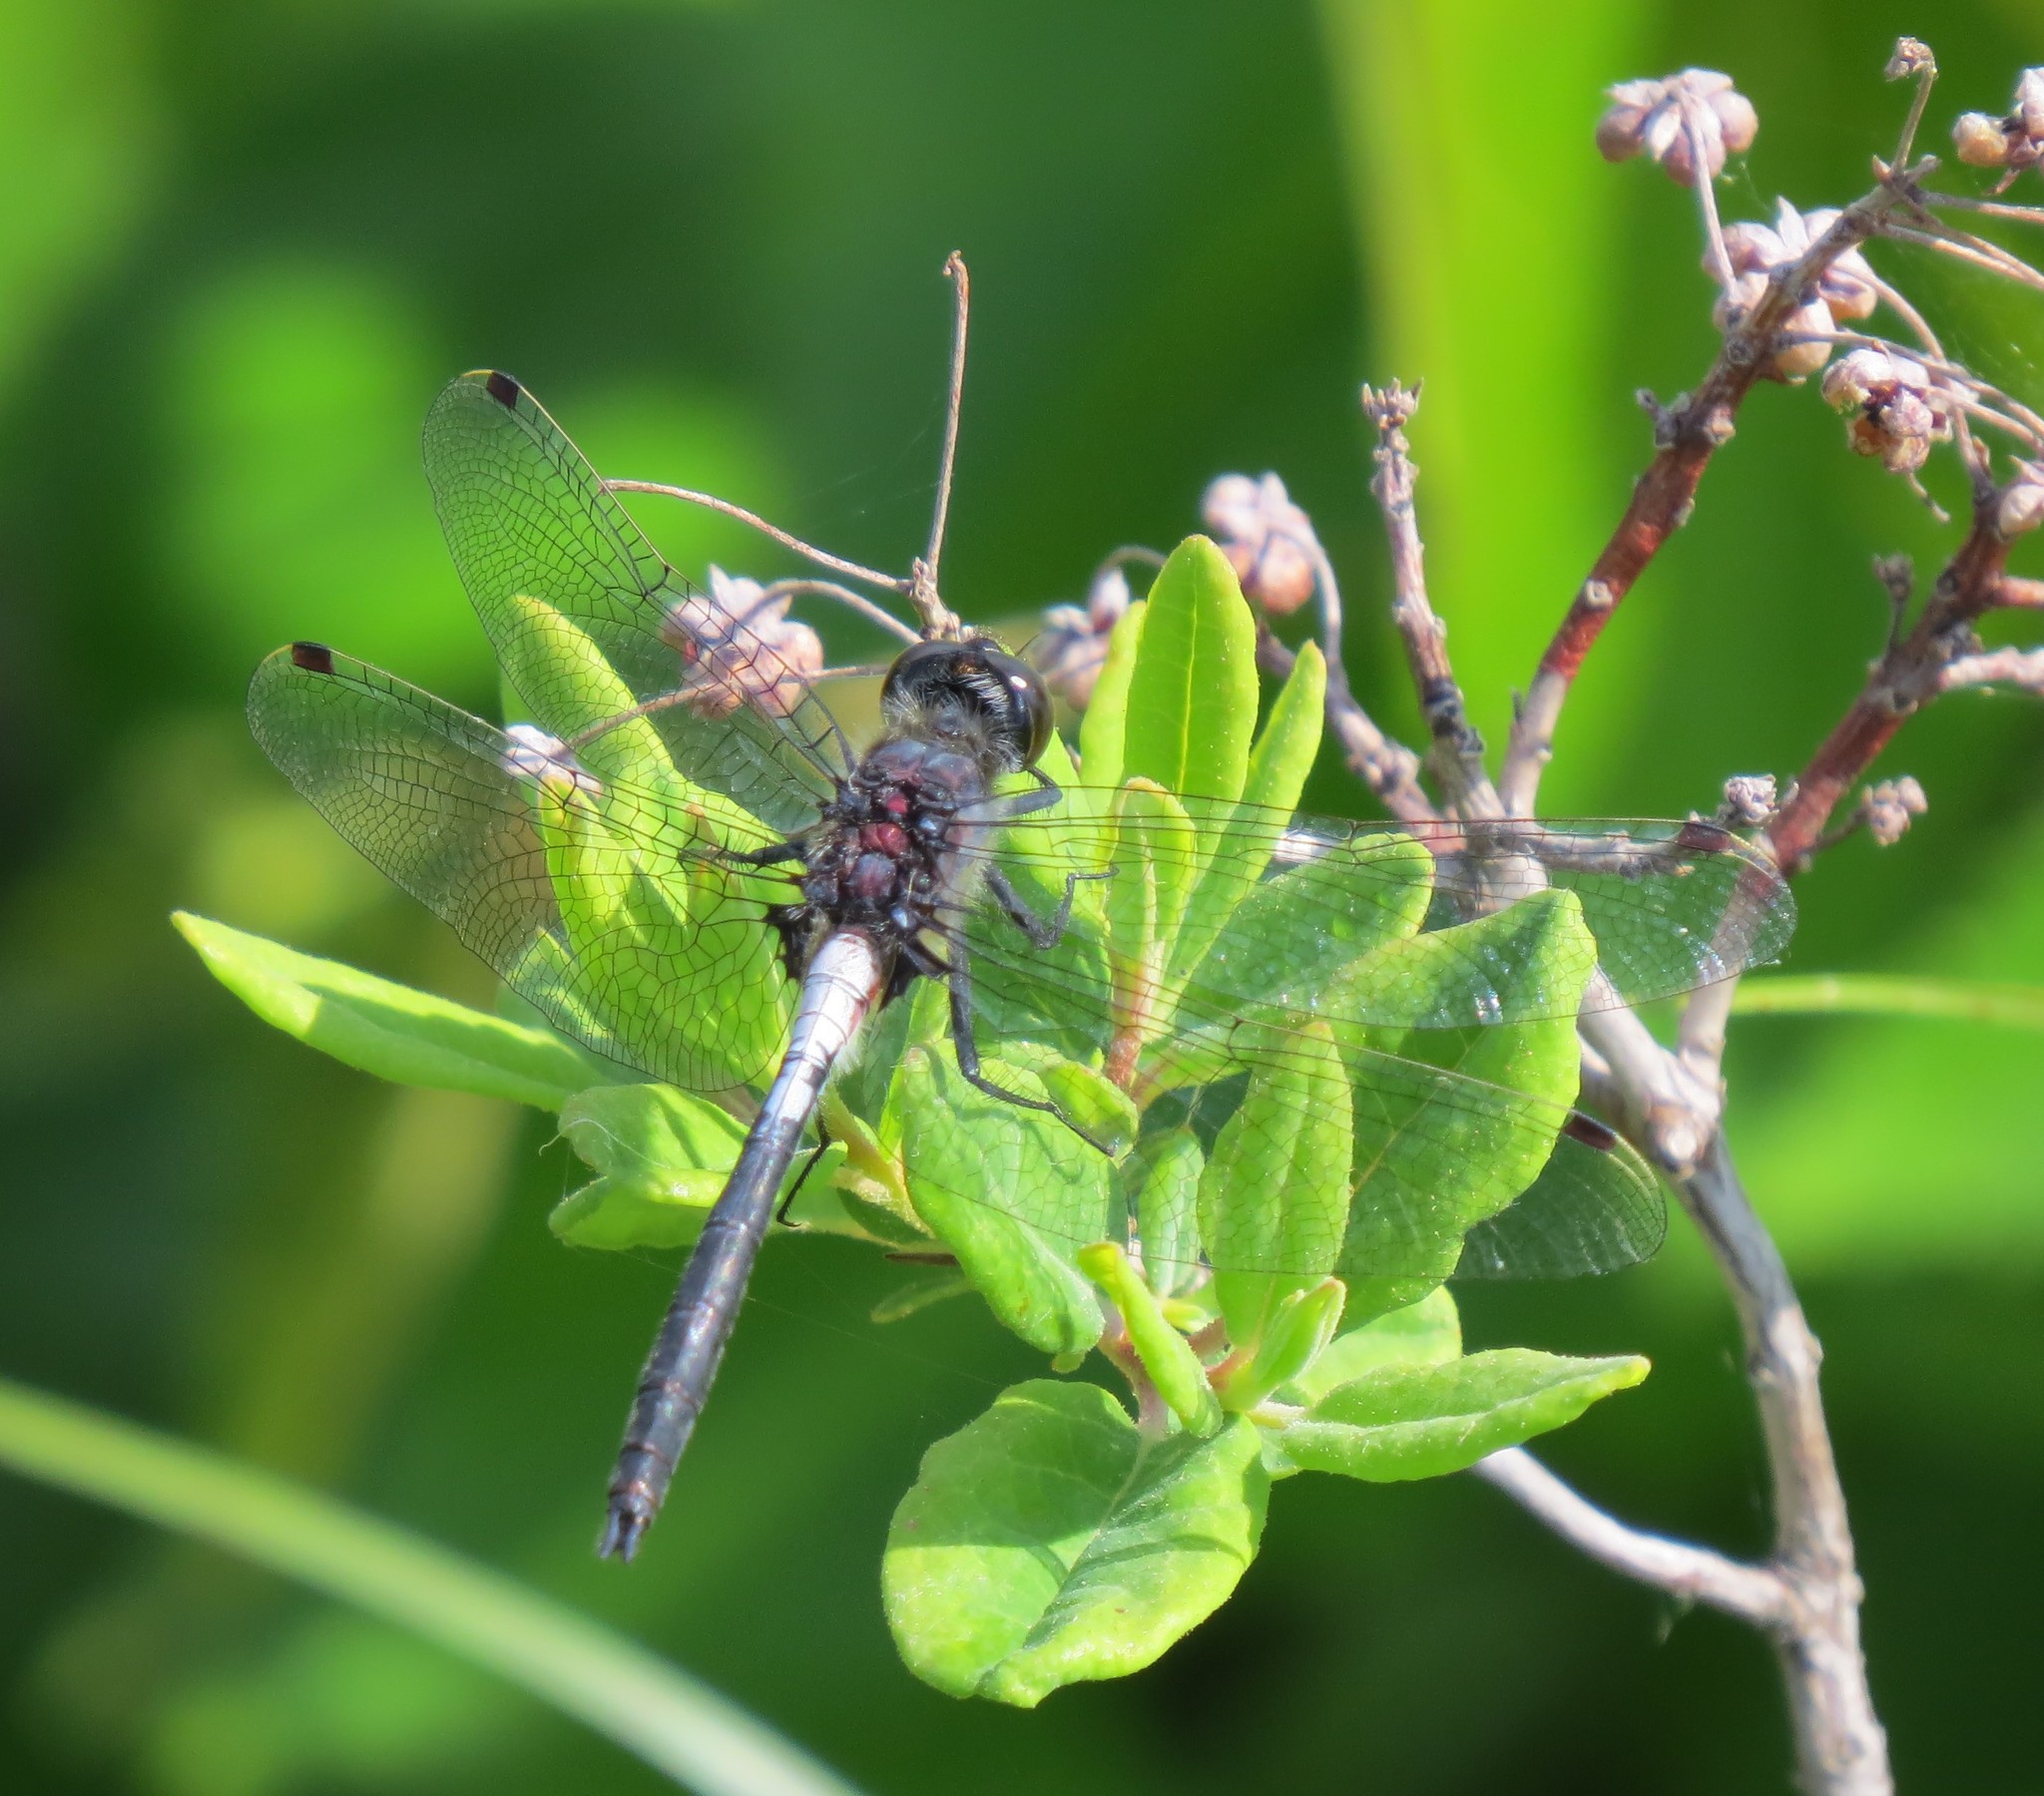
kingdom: Animalia
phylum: Arthropoda
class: Insecta
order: Odonata
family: Libellulidae
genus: Leucorrhinia
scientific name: Leucorrhinia proxima
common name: Belted whiteface
